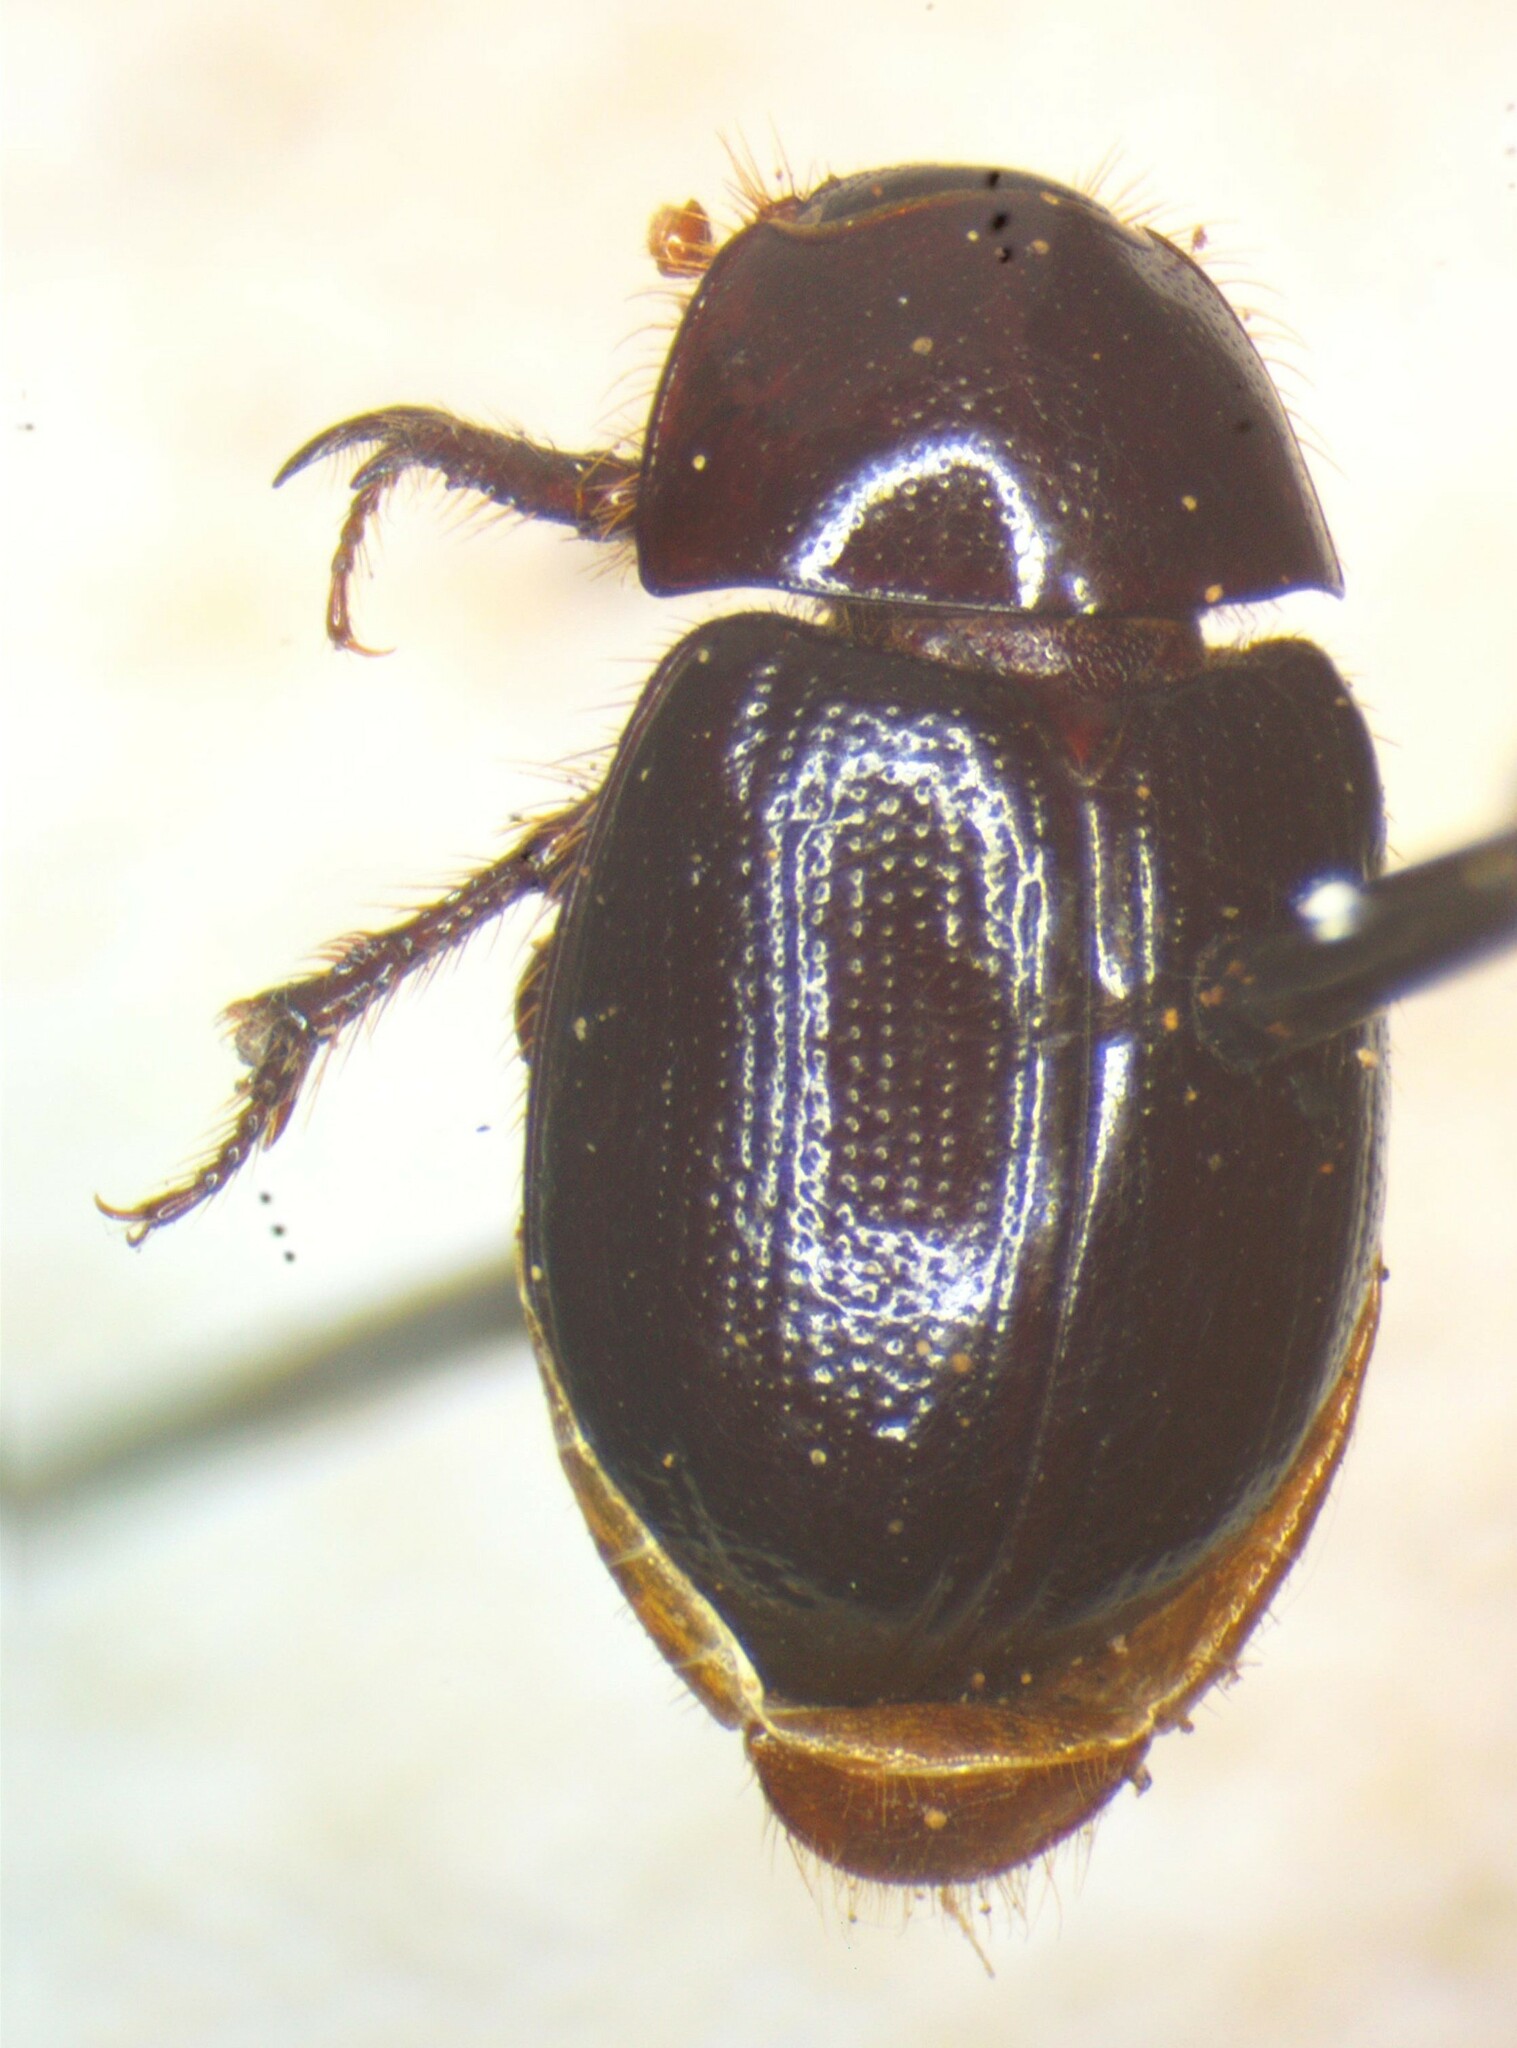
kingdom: Animalia
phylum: Arthropoda
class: Insecta
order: Coleoptera
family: Hybosoridae
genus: Hybosorus
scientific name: Hybosorus illigeri
